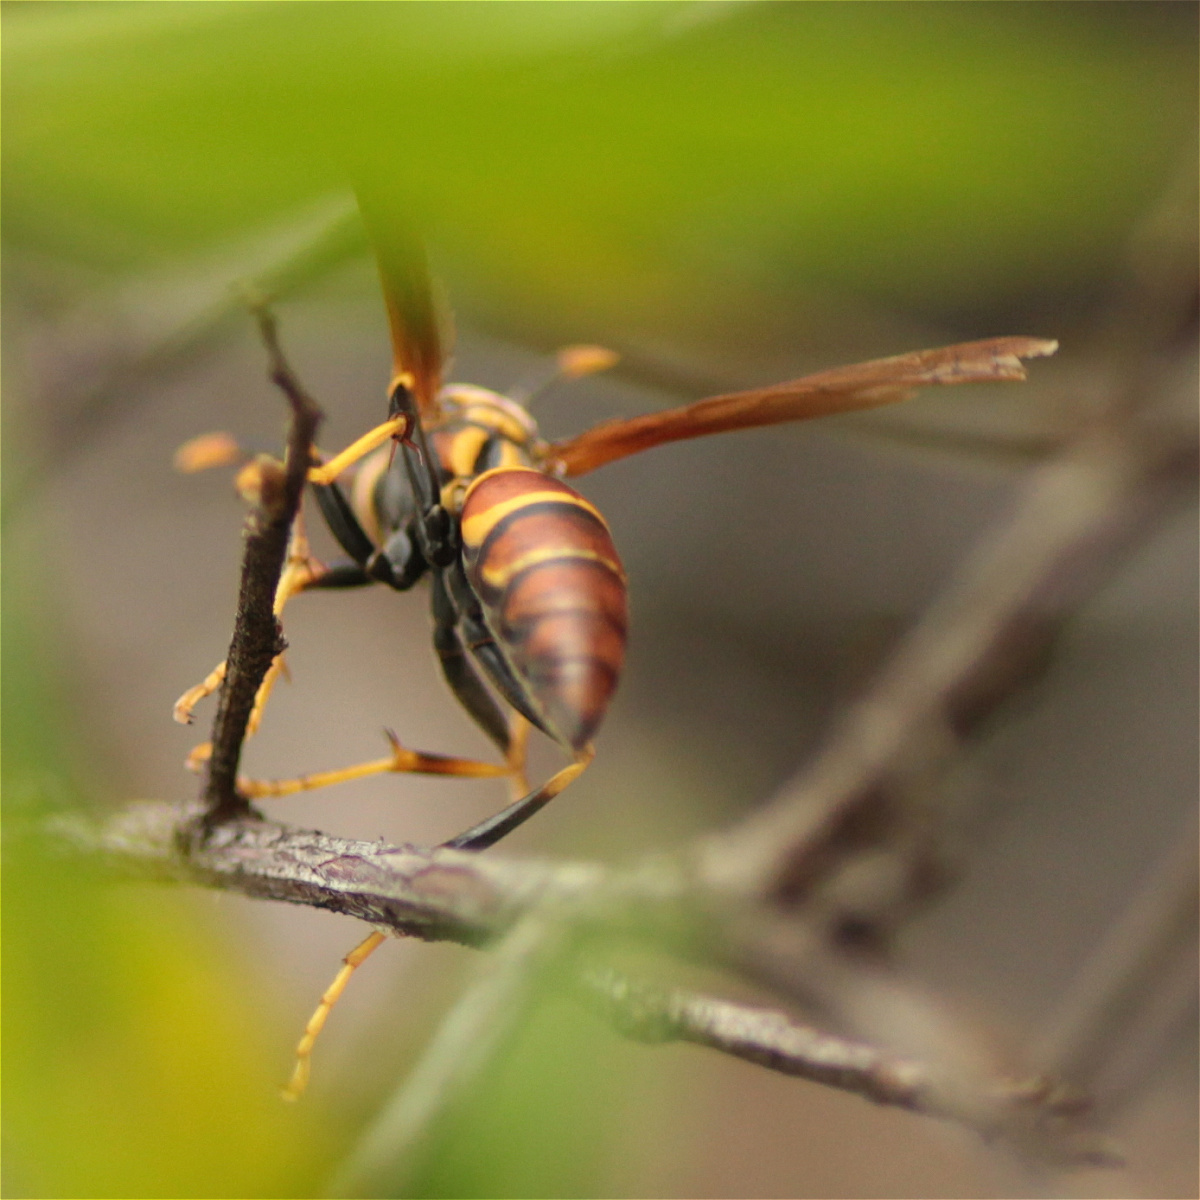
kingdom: Animalia
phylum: Arthropoda
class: Insecta
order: Hymenoptera
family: Eumenidae
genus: Polistes
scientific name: Polistes instabilis
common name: Unstable paper wasp
